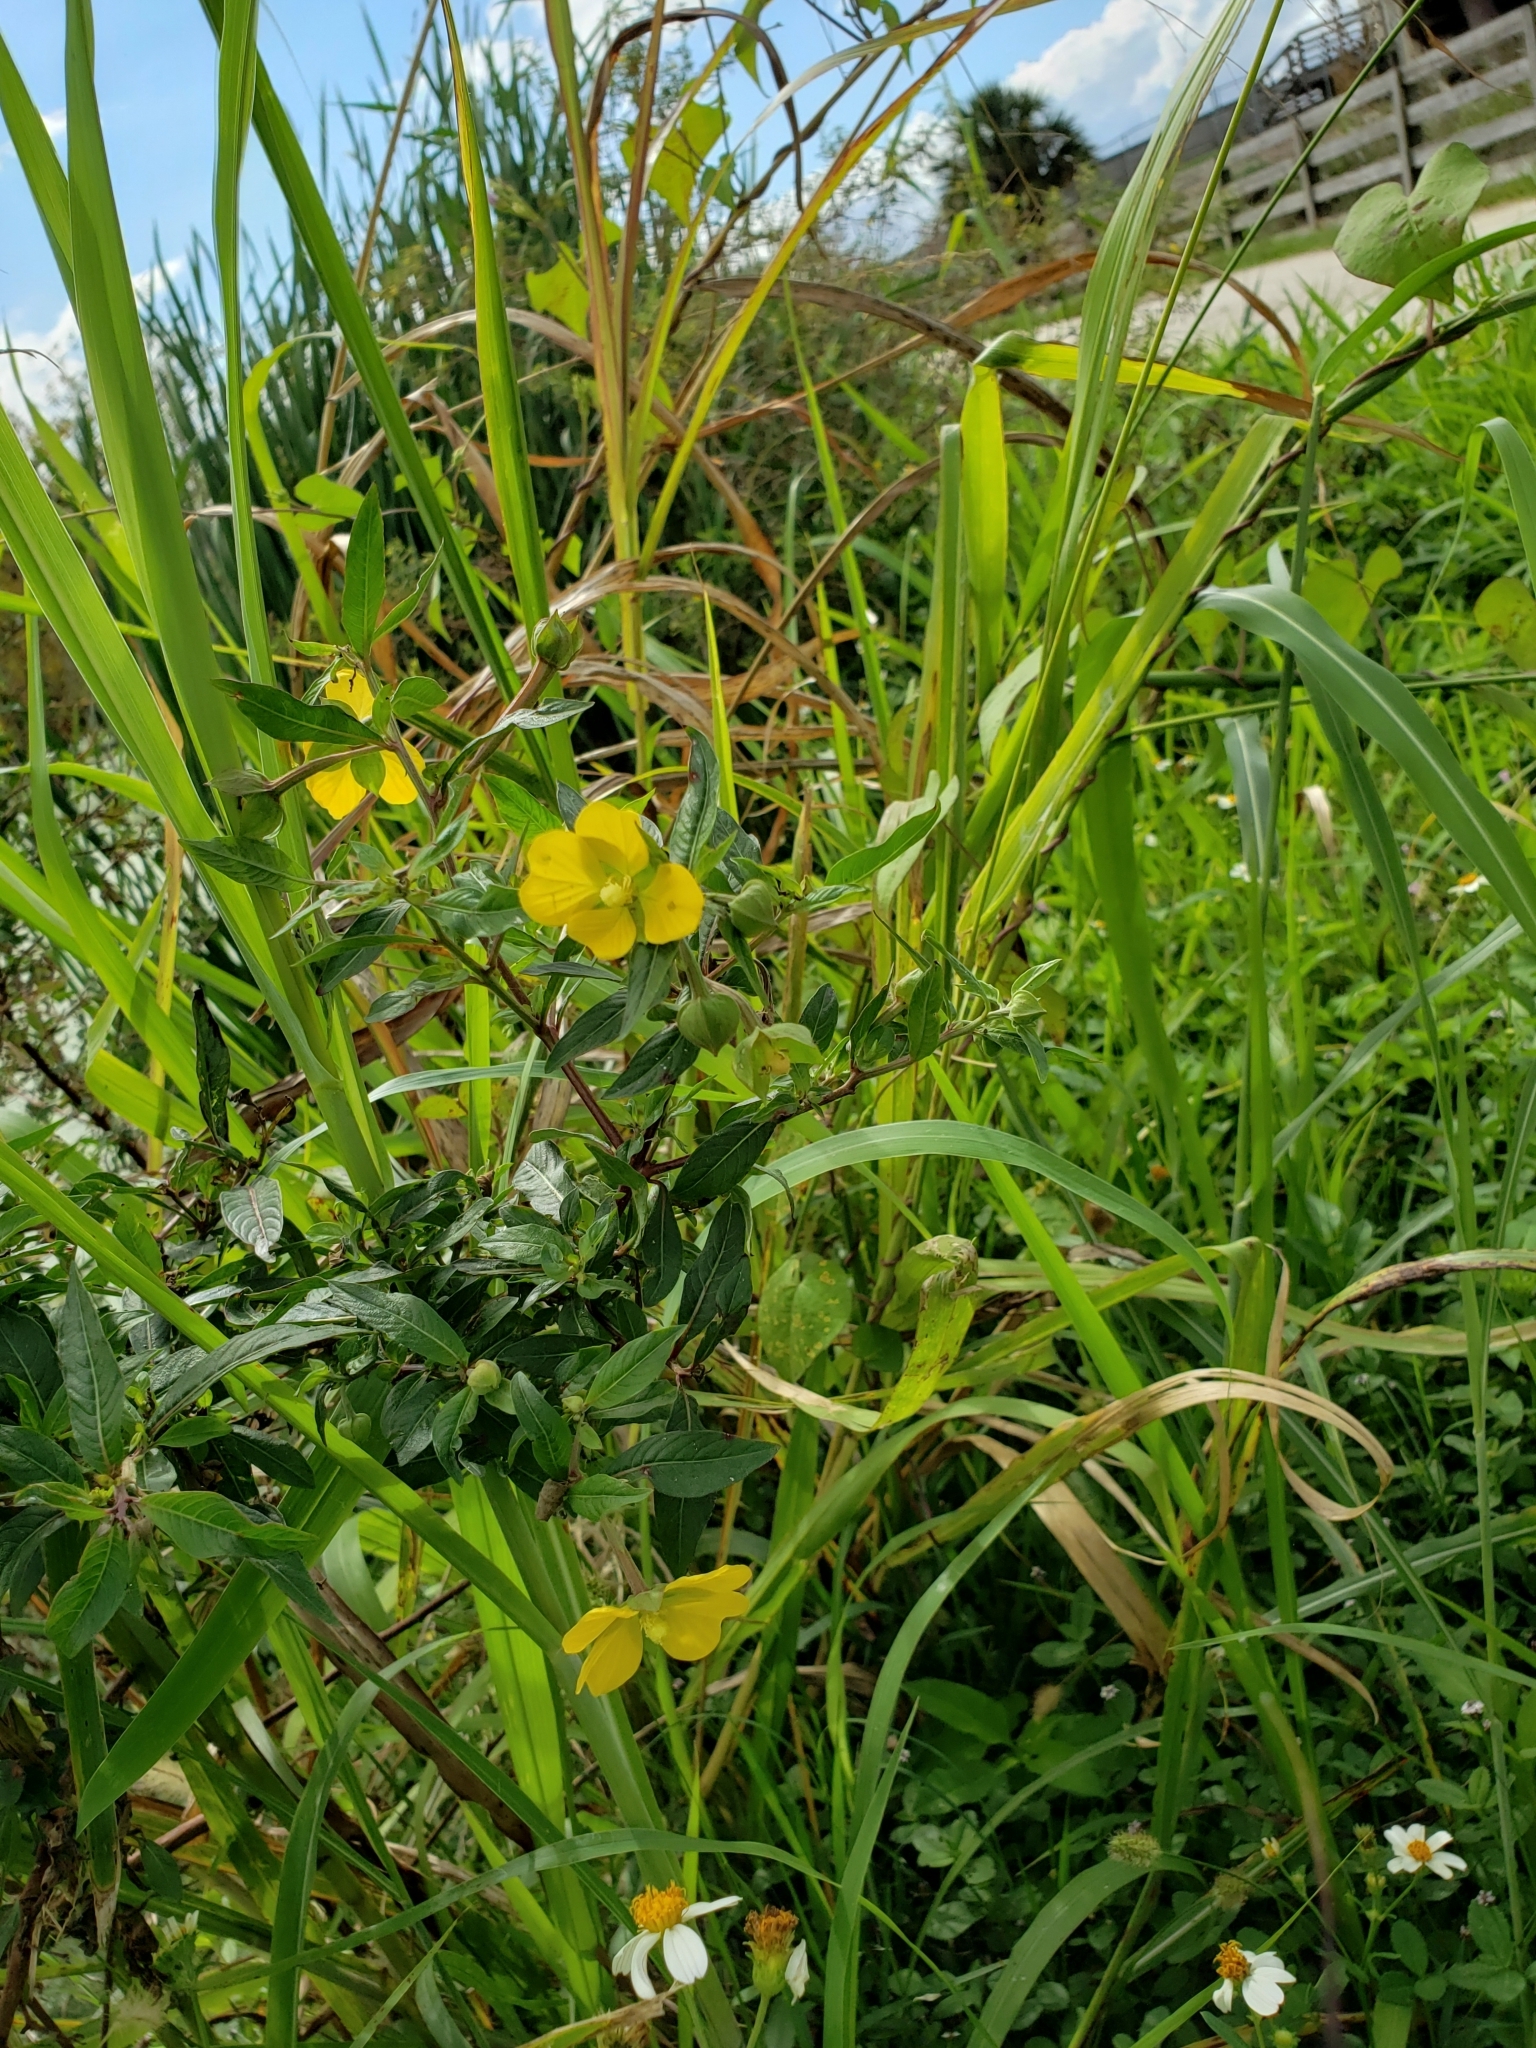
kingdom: Plantae
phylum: Tracheophyta
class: Magnoliopsida
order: Myrtales
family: Onagraceae
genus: Ludwigia
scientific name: Ludwigia octovalvis
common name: Water-primrose
